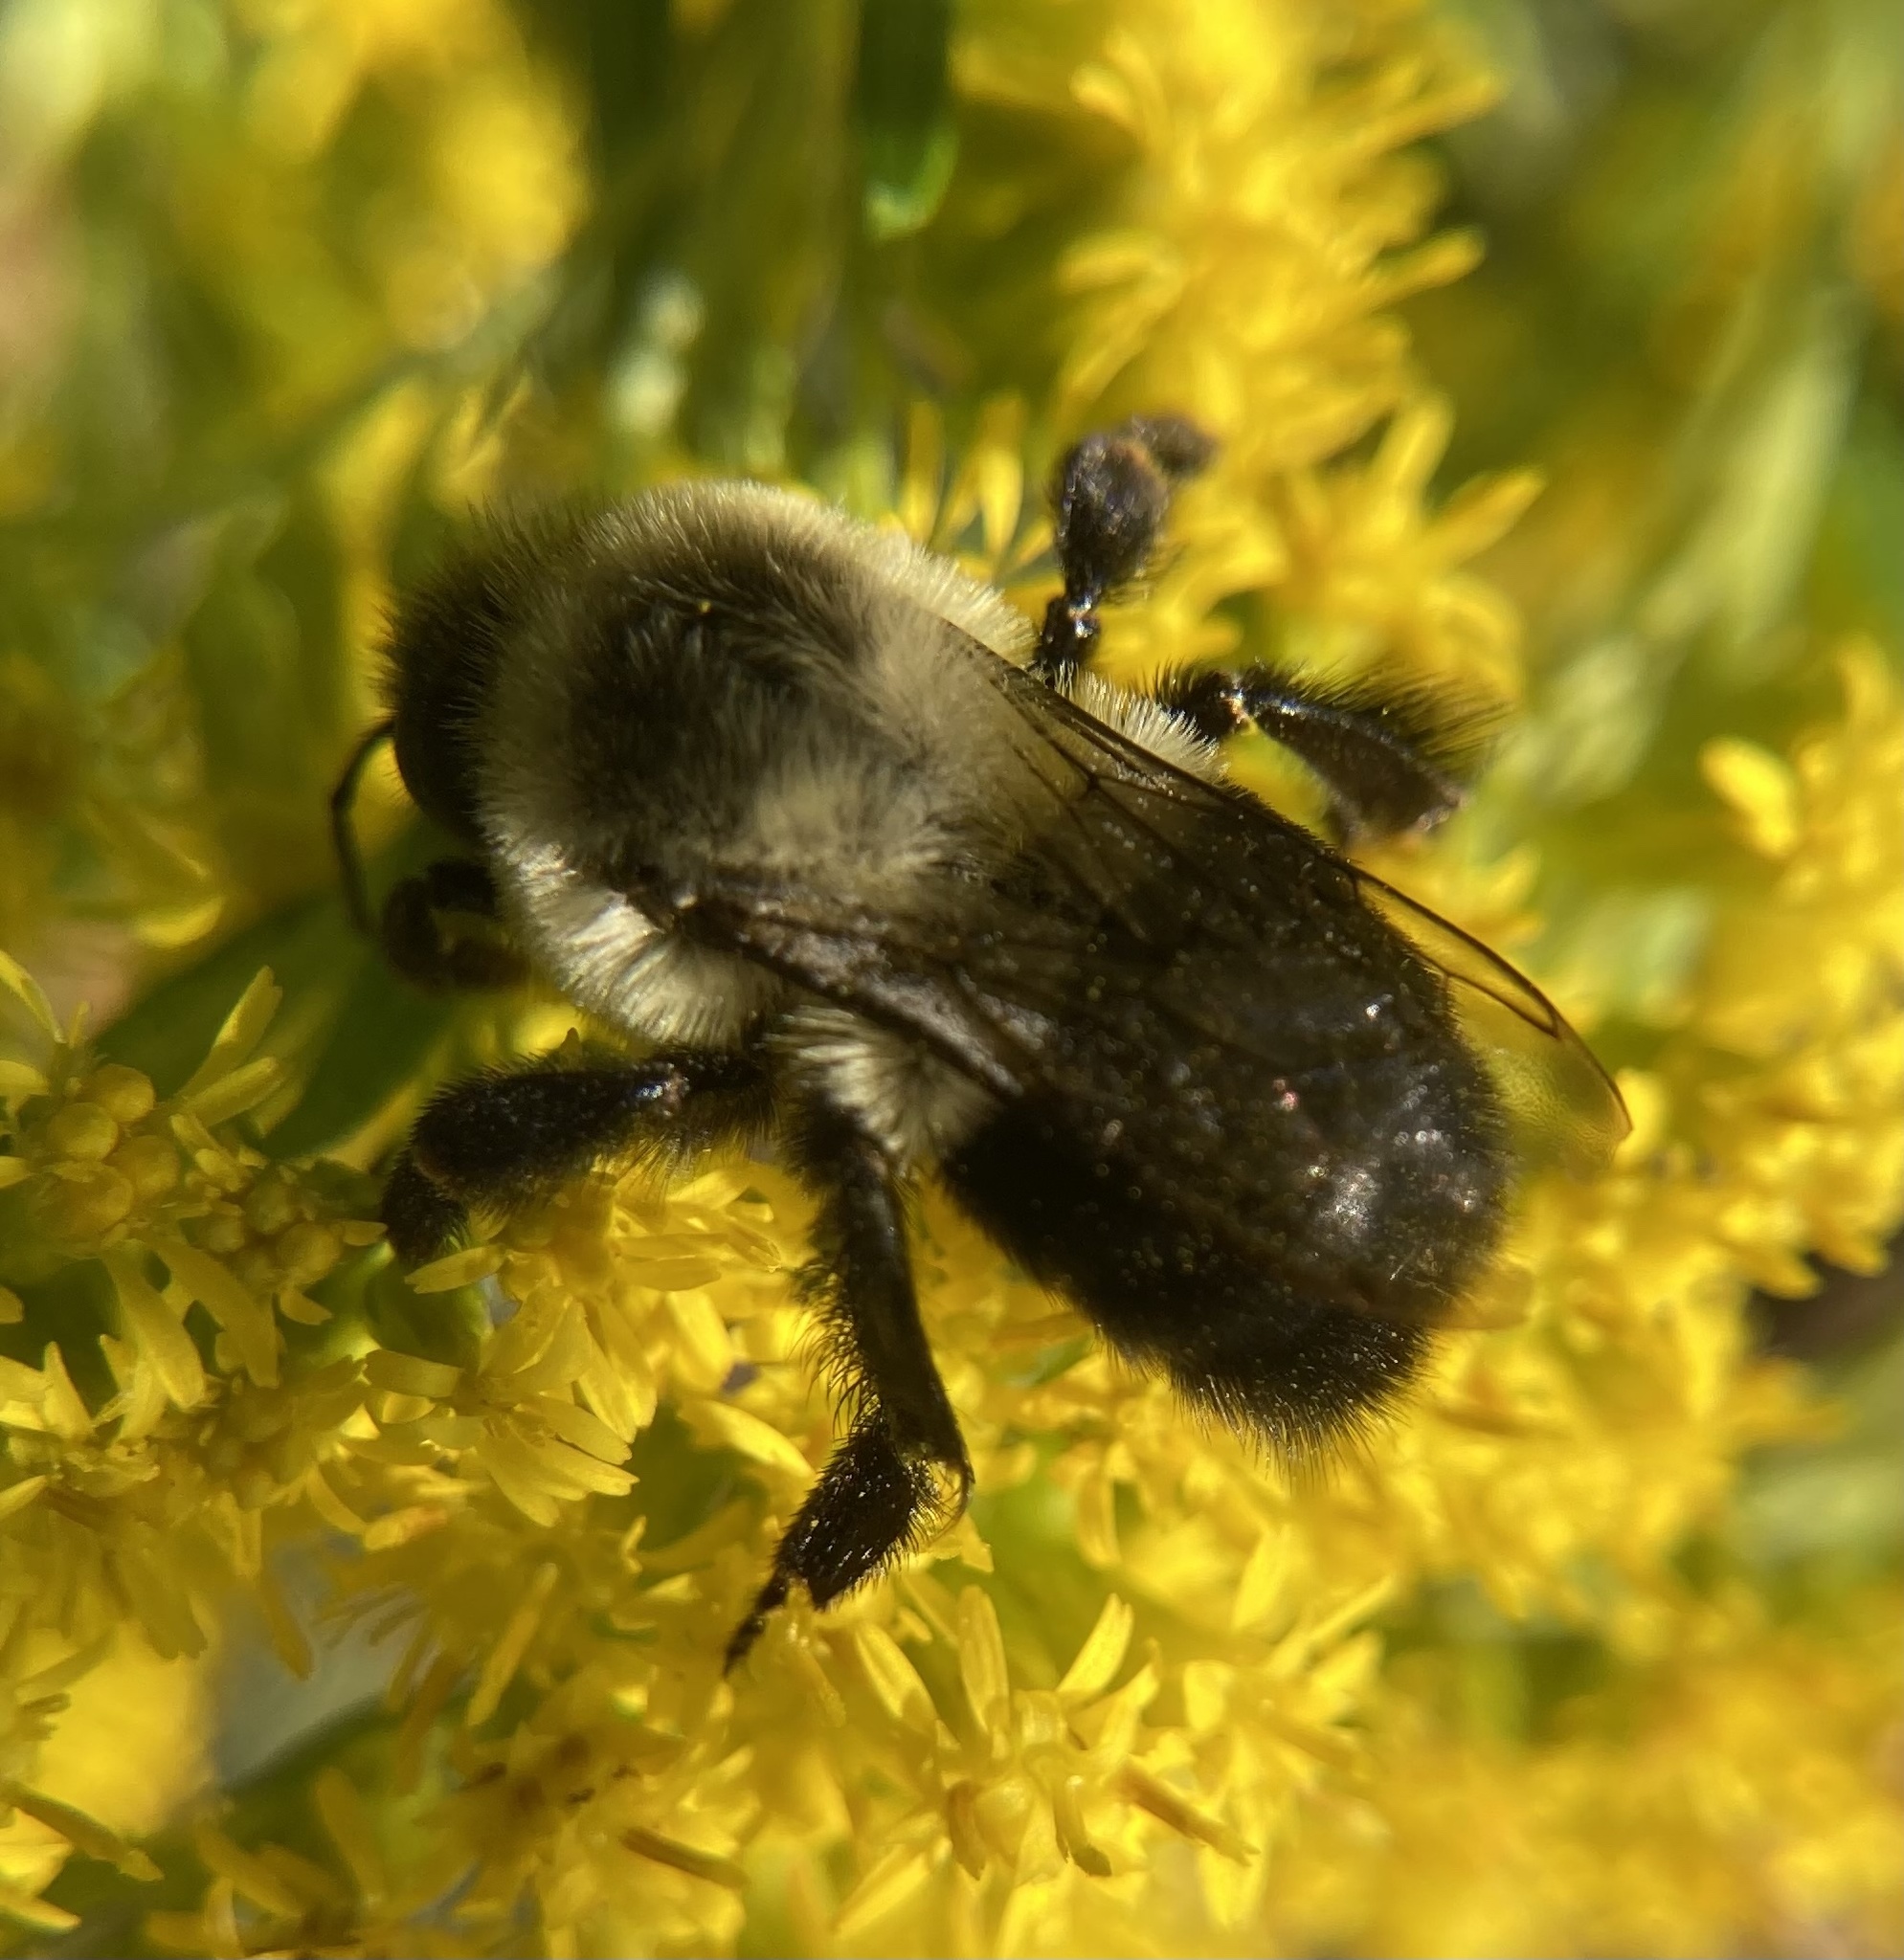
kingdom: Animalia
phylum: Arthropoda
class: Insecta
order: Hymenoptera
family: Apidae
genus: Bombus
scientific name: Bombus impatiens
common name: Common eastern bumble bee
